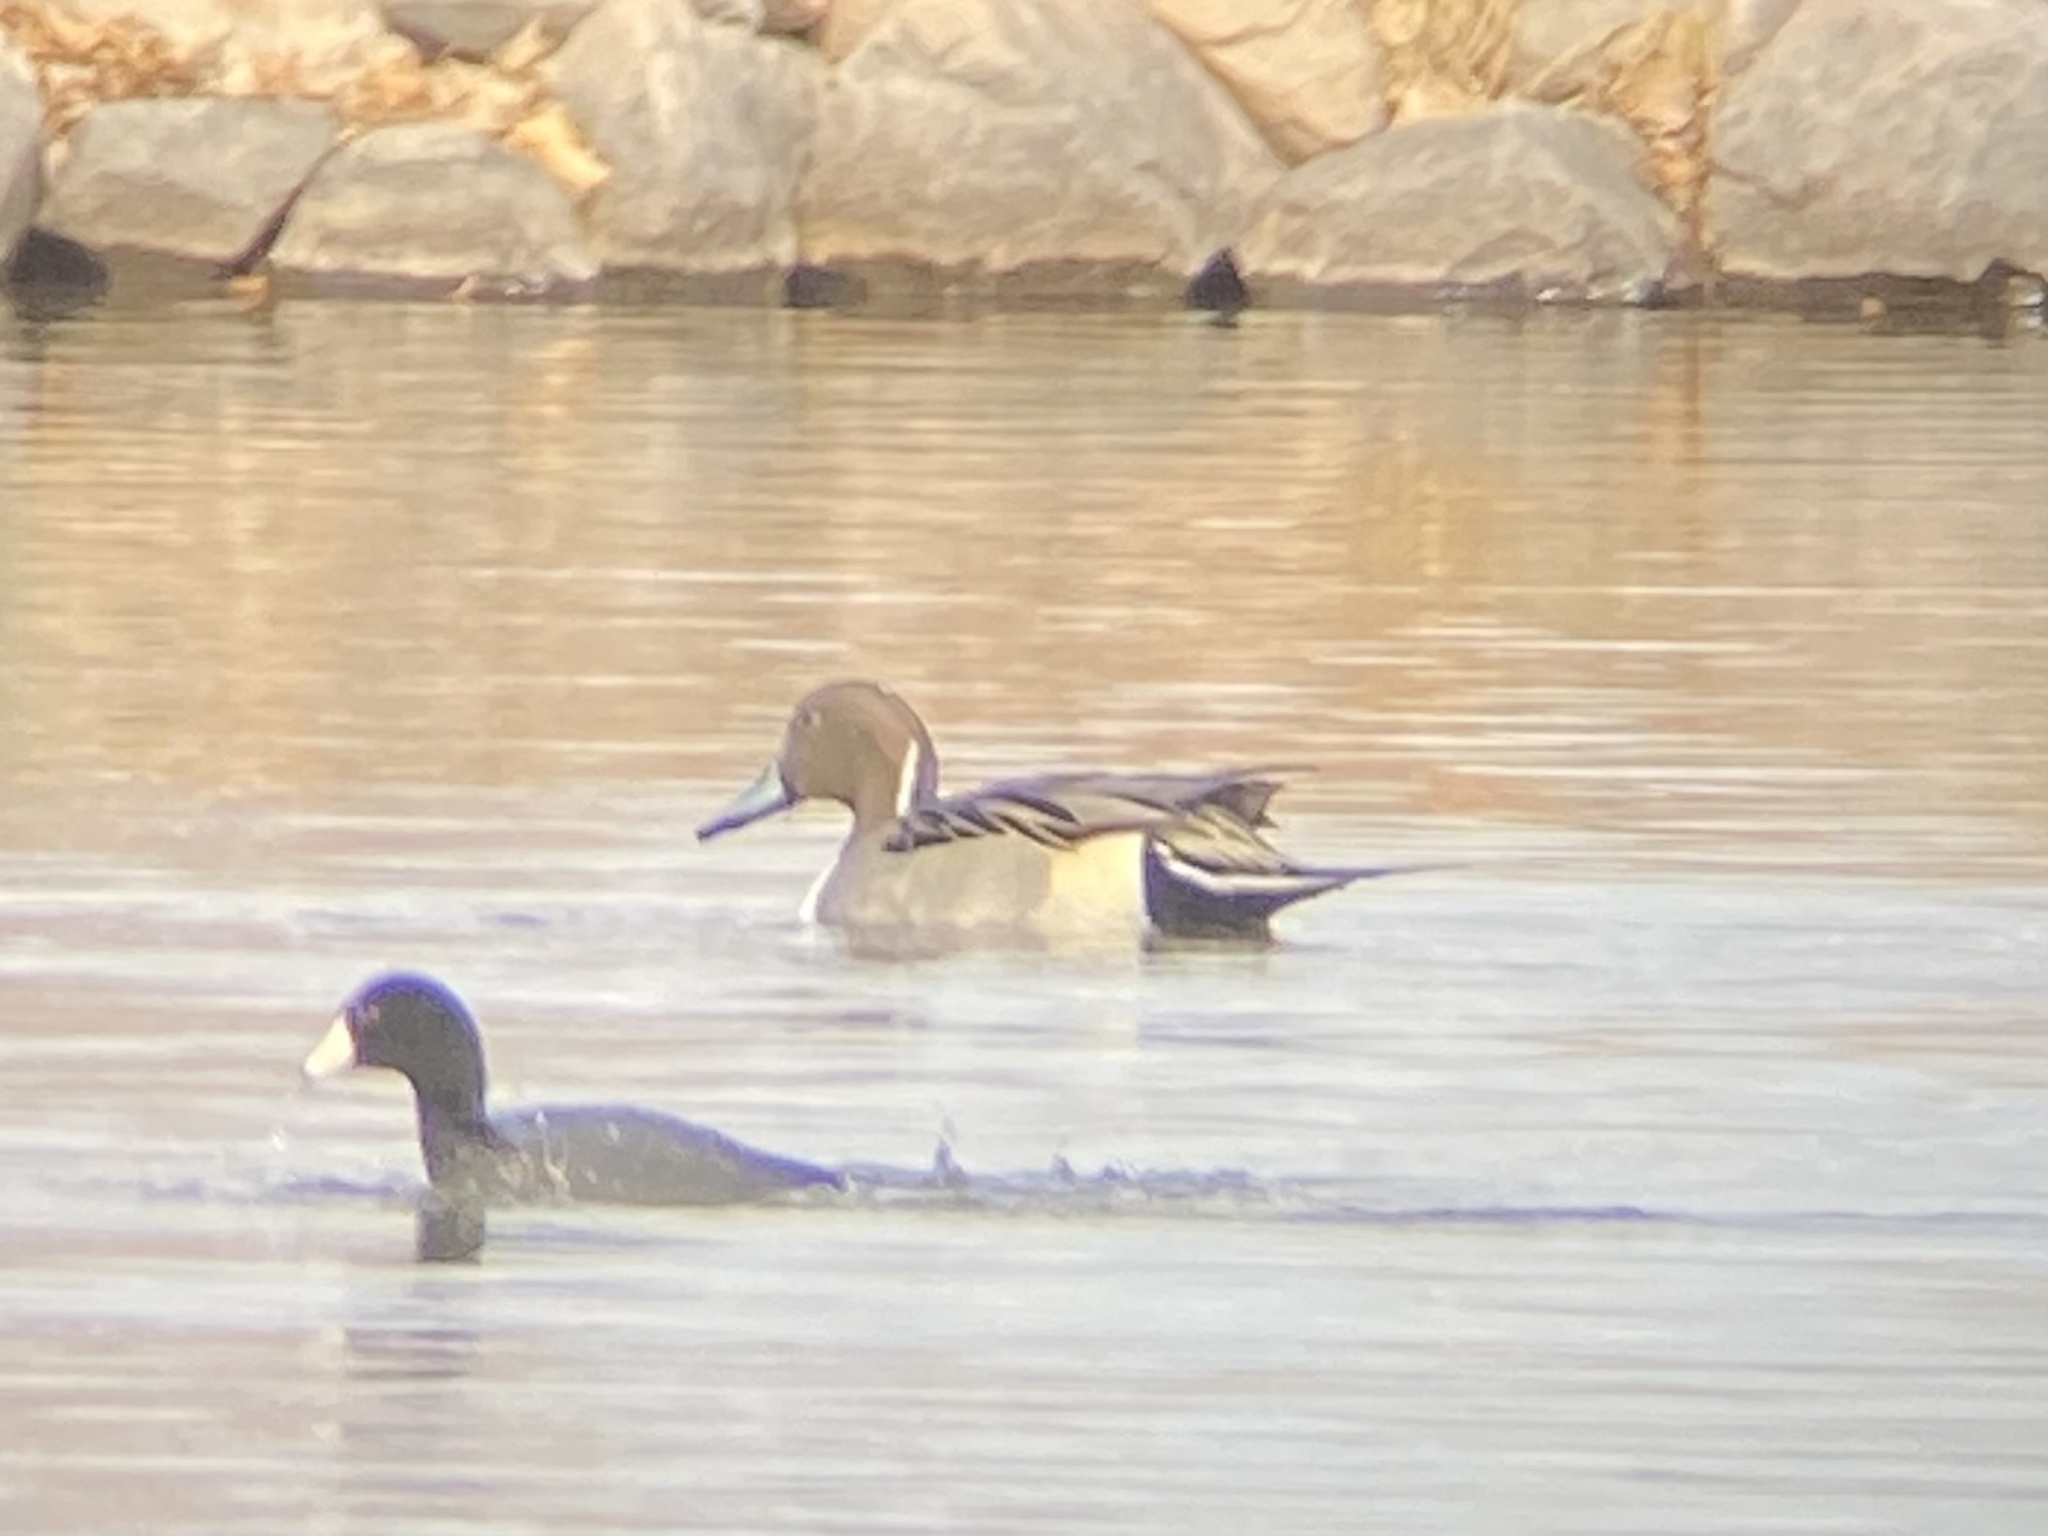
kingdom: Animalia
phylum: Chordata
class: Aves
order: Anseriformes
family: Anatidae
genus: Anas
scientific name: Anas acuta
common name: Northern pintail
